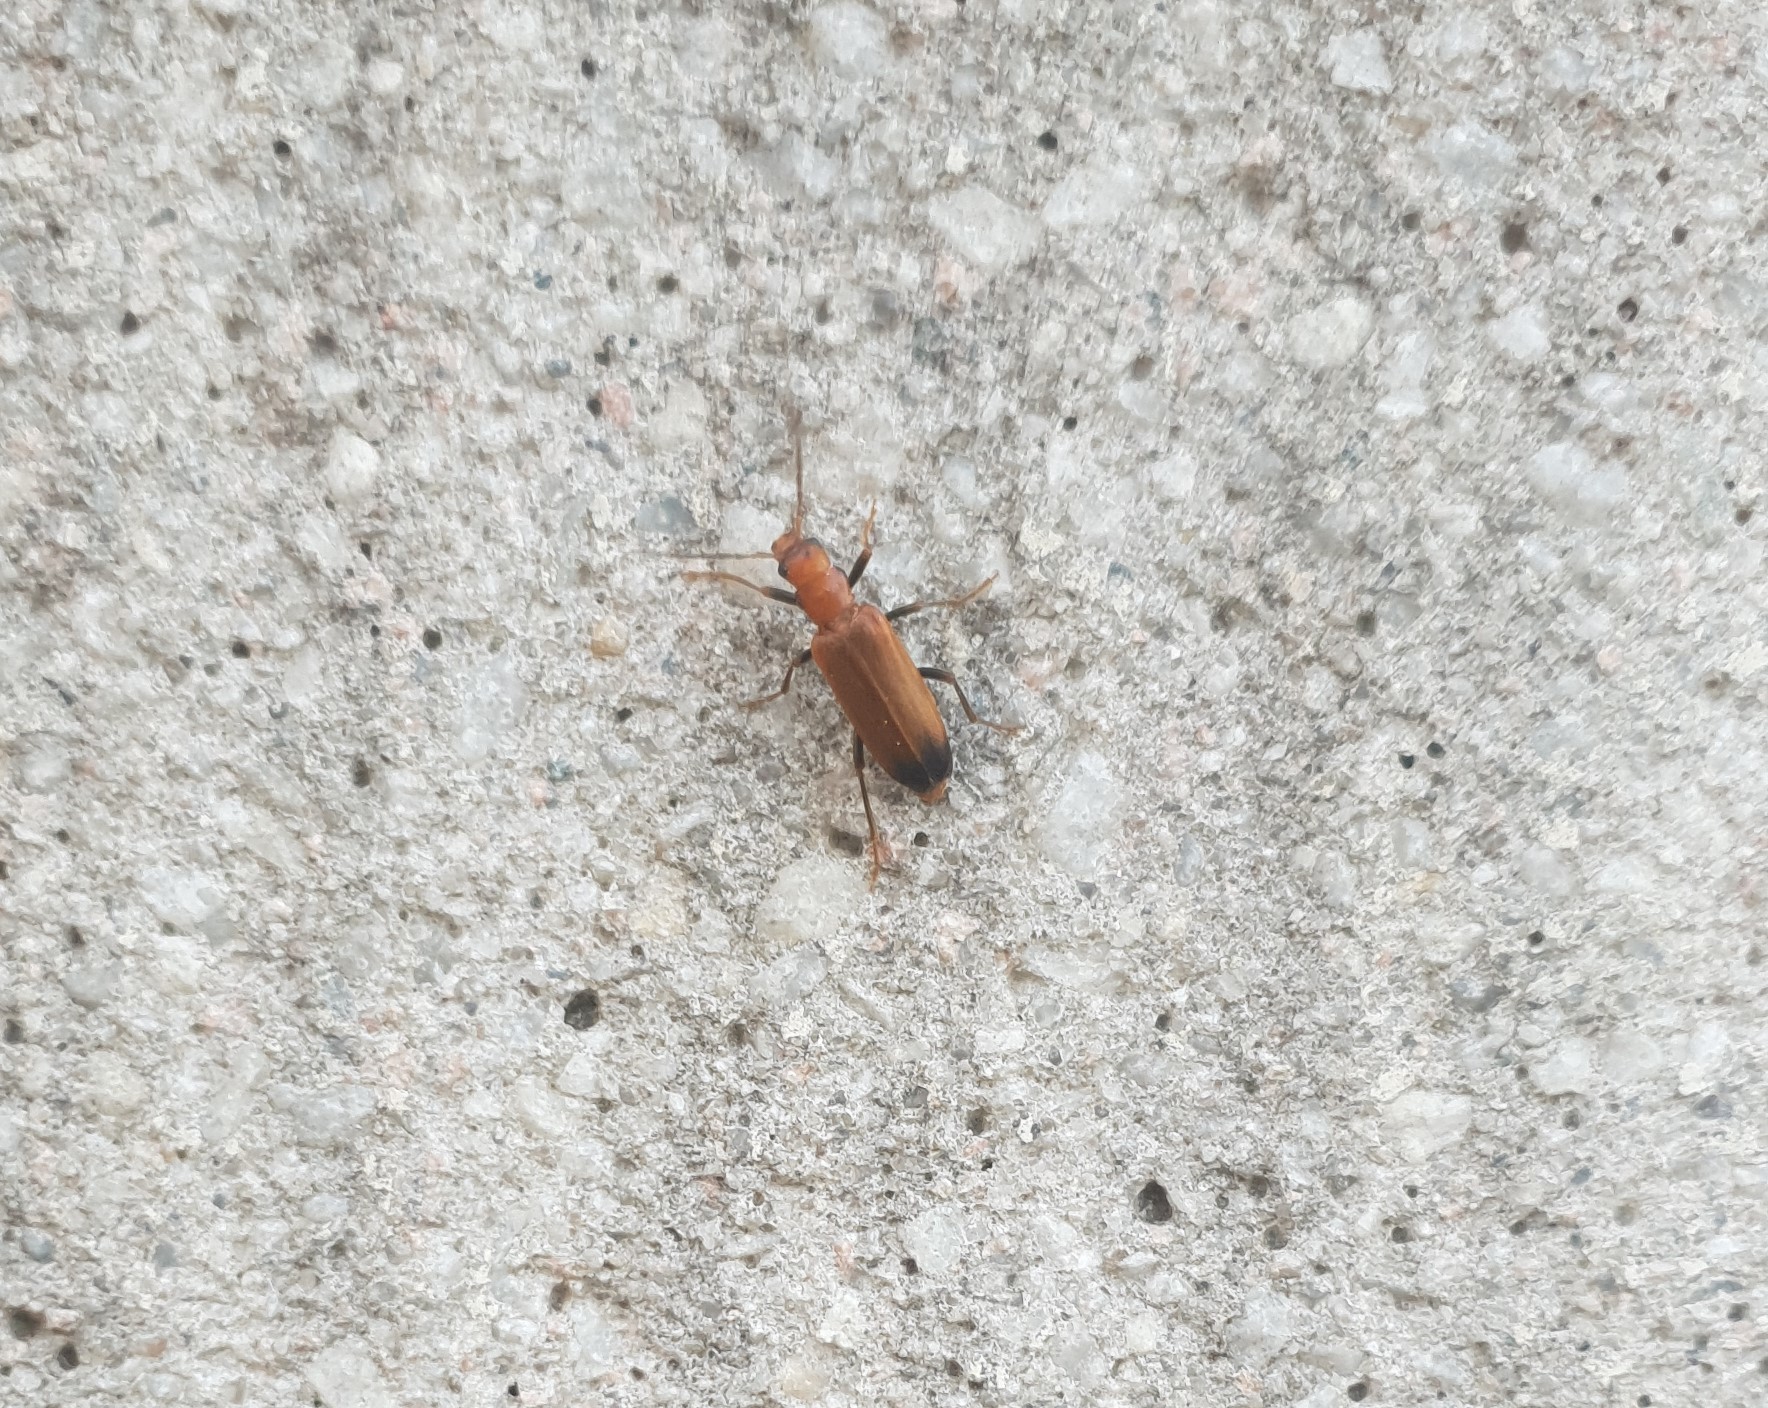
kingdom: Animalia
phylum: Arthropoda
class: Insecta
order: Coleoptera
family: Oedemeridae
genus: Nacerdes
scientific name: Nacerdes melanura
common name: Wharf borer
